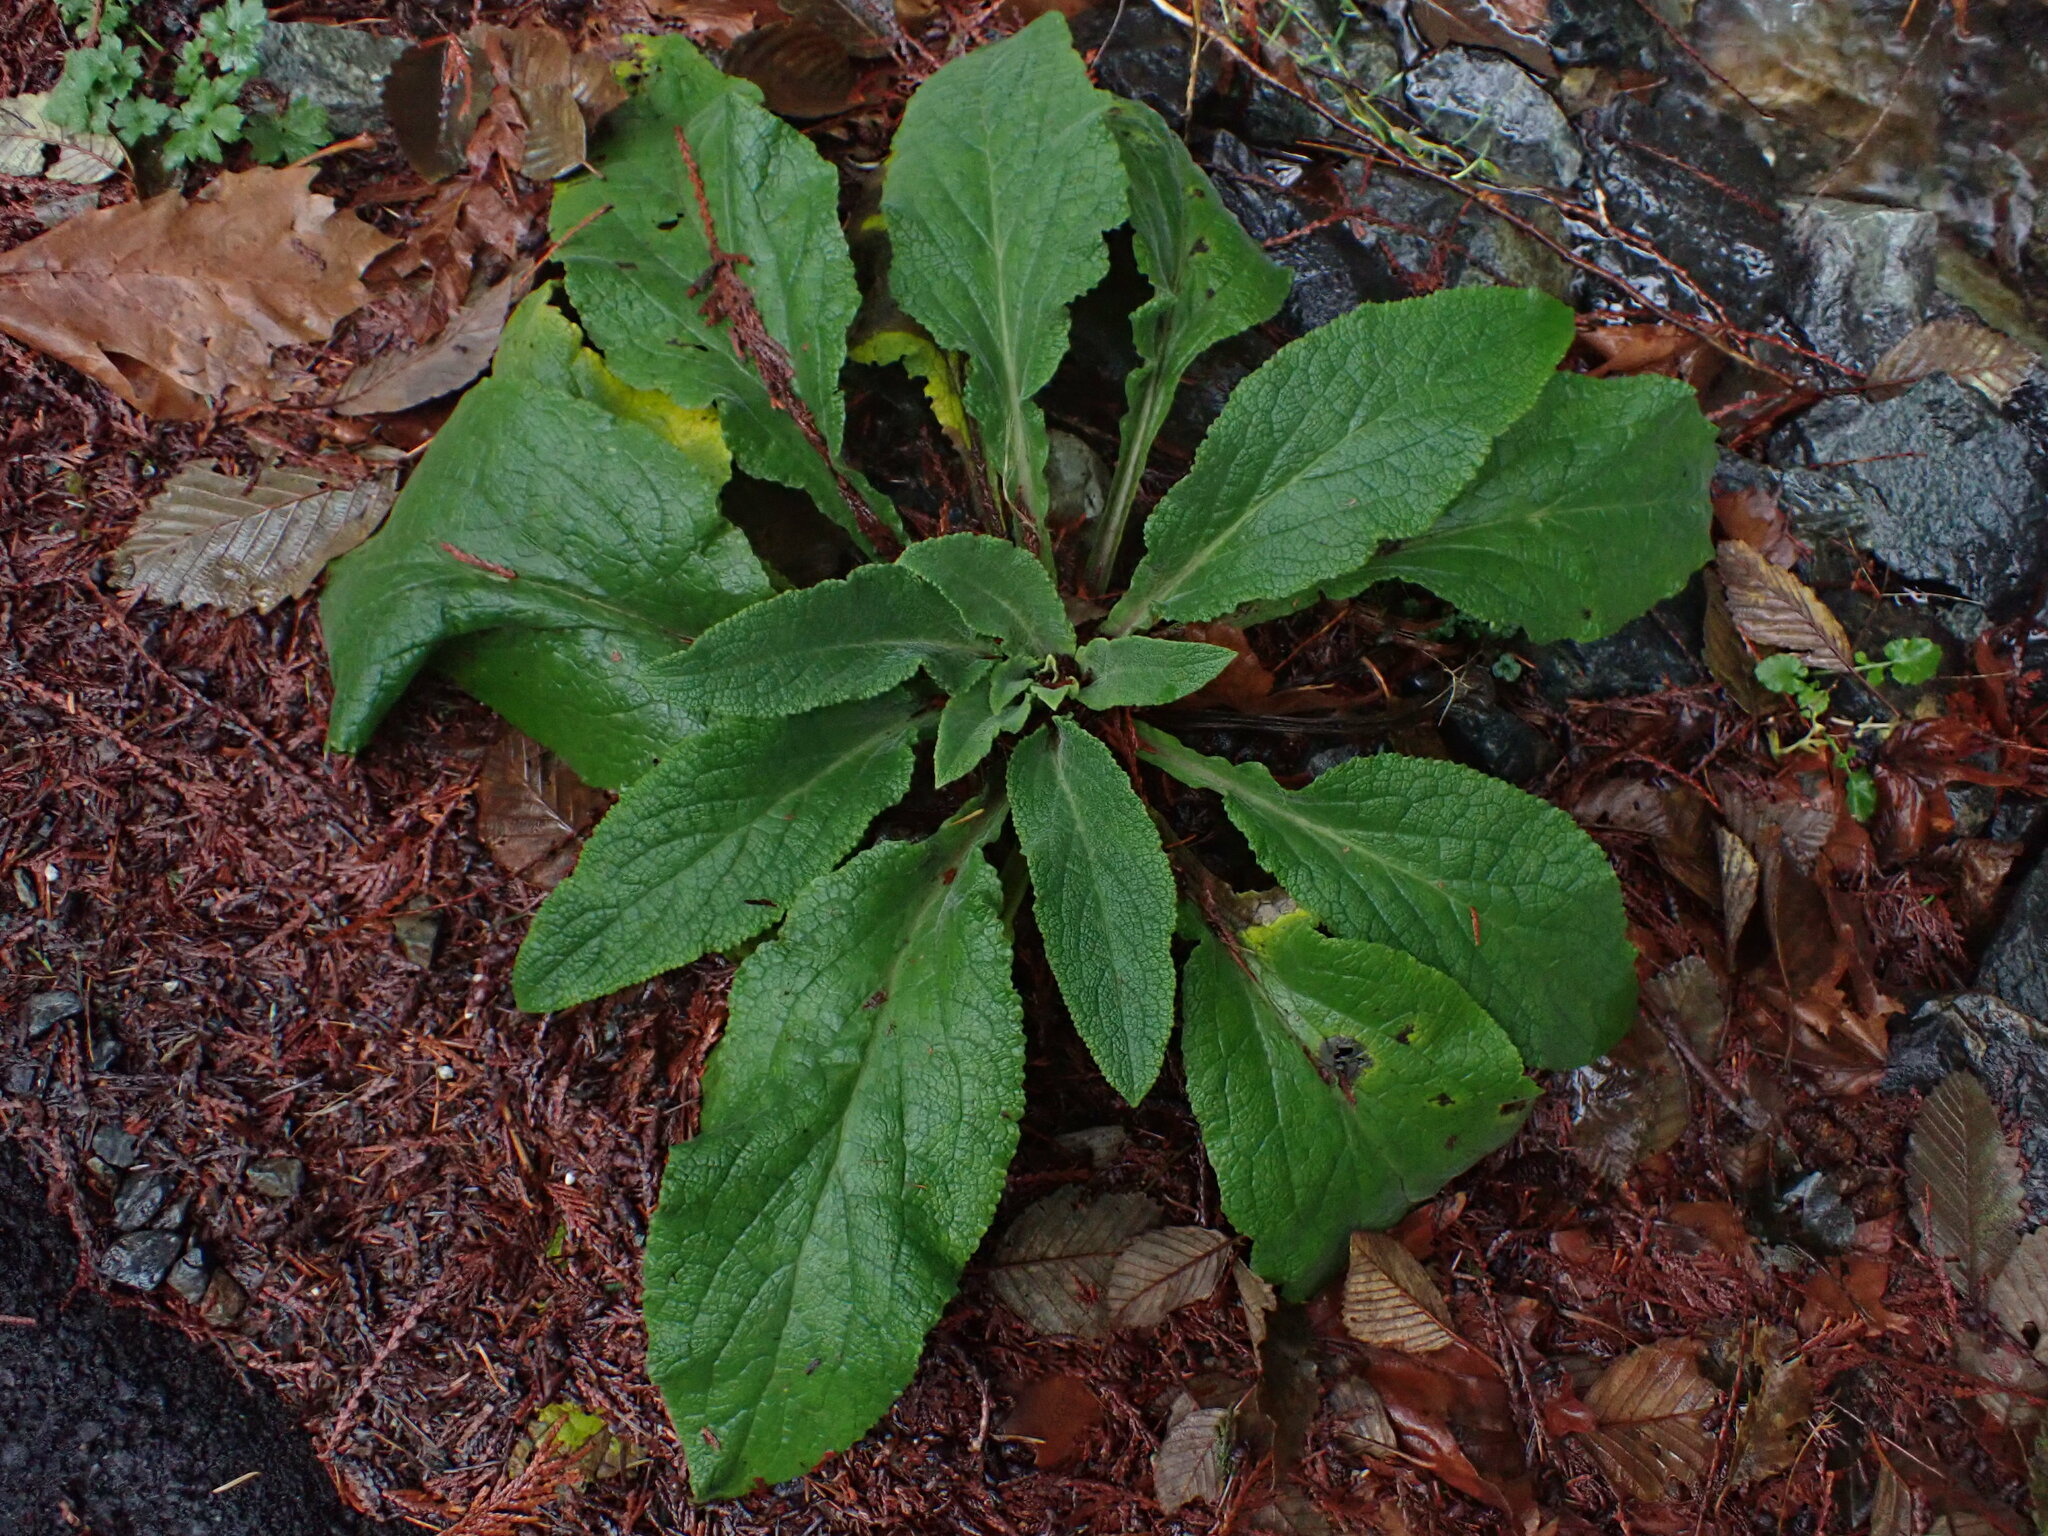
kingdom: Plantae
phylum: Tracheophyta
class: Magnoliopsida
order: Lamiales
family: Plantaginaceae
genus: Digitalis
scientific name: Digitalis purpurea
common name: Foxglove
